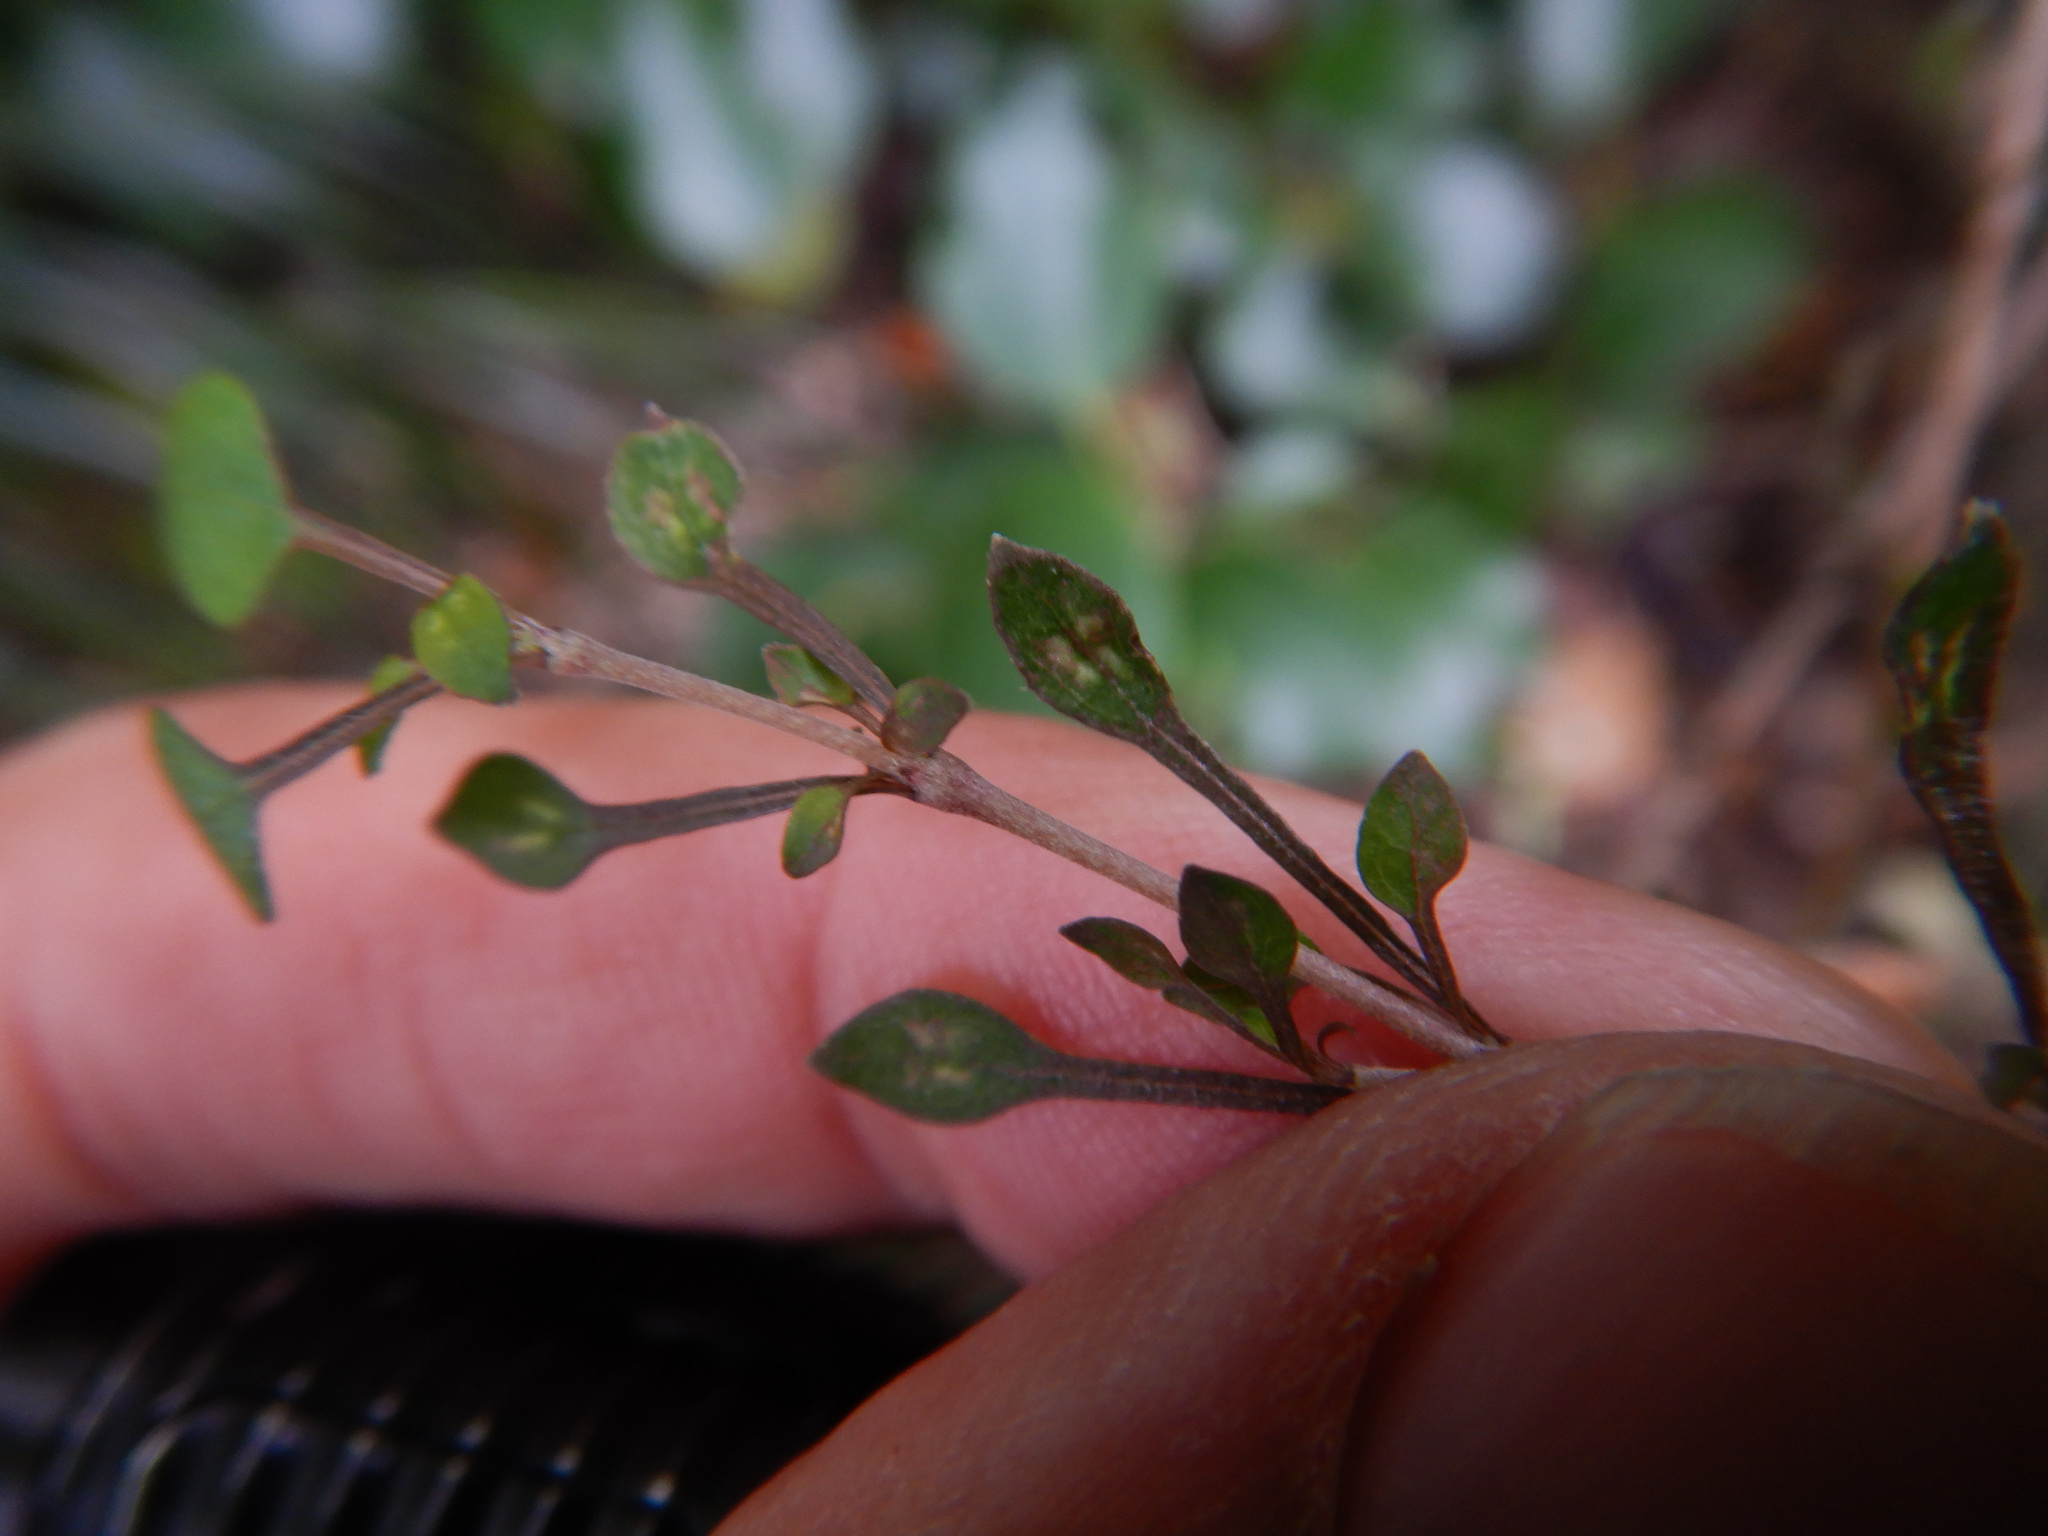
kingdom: Plantae
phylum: Tracheophyta
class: Magnoliopsida
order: Gentianales
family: Rubiaceae
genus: Coprosma
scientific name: Coprosma virescens
